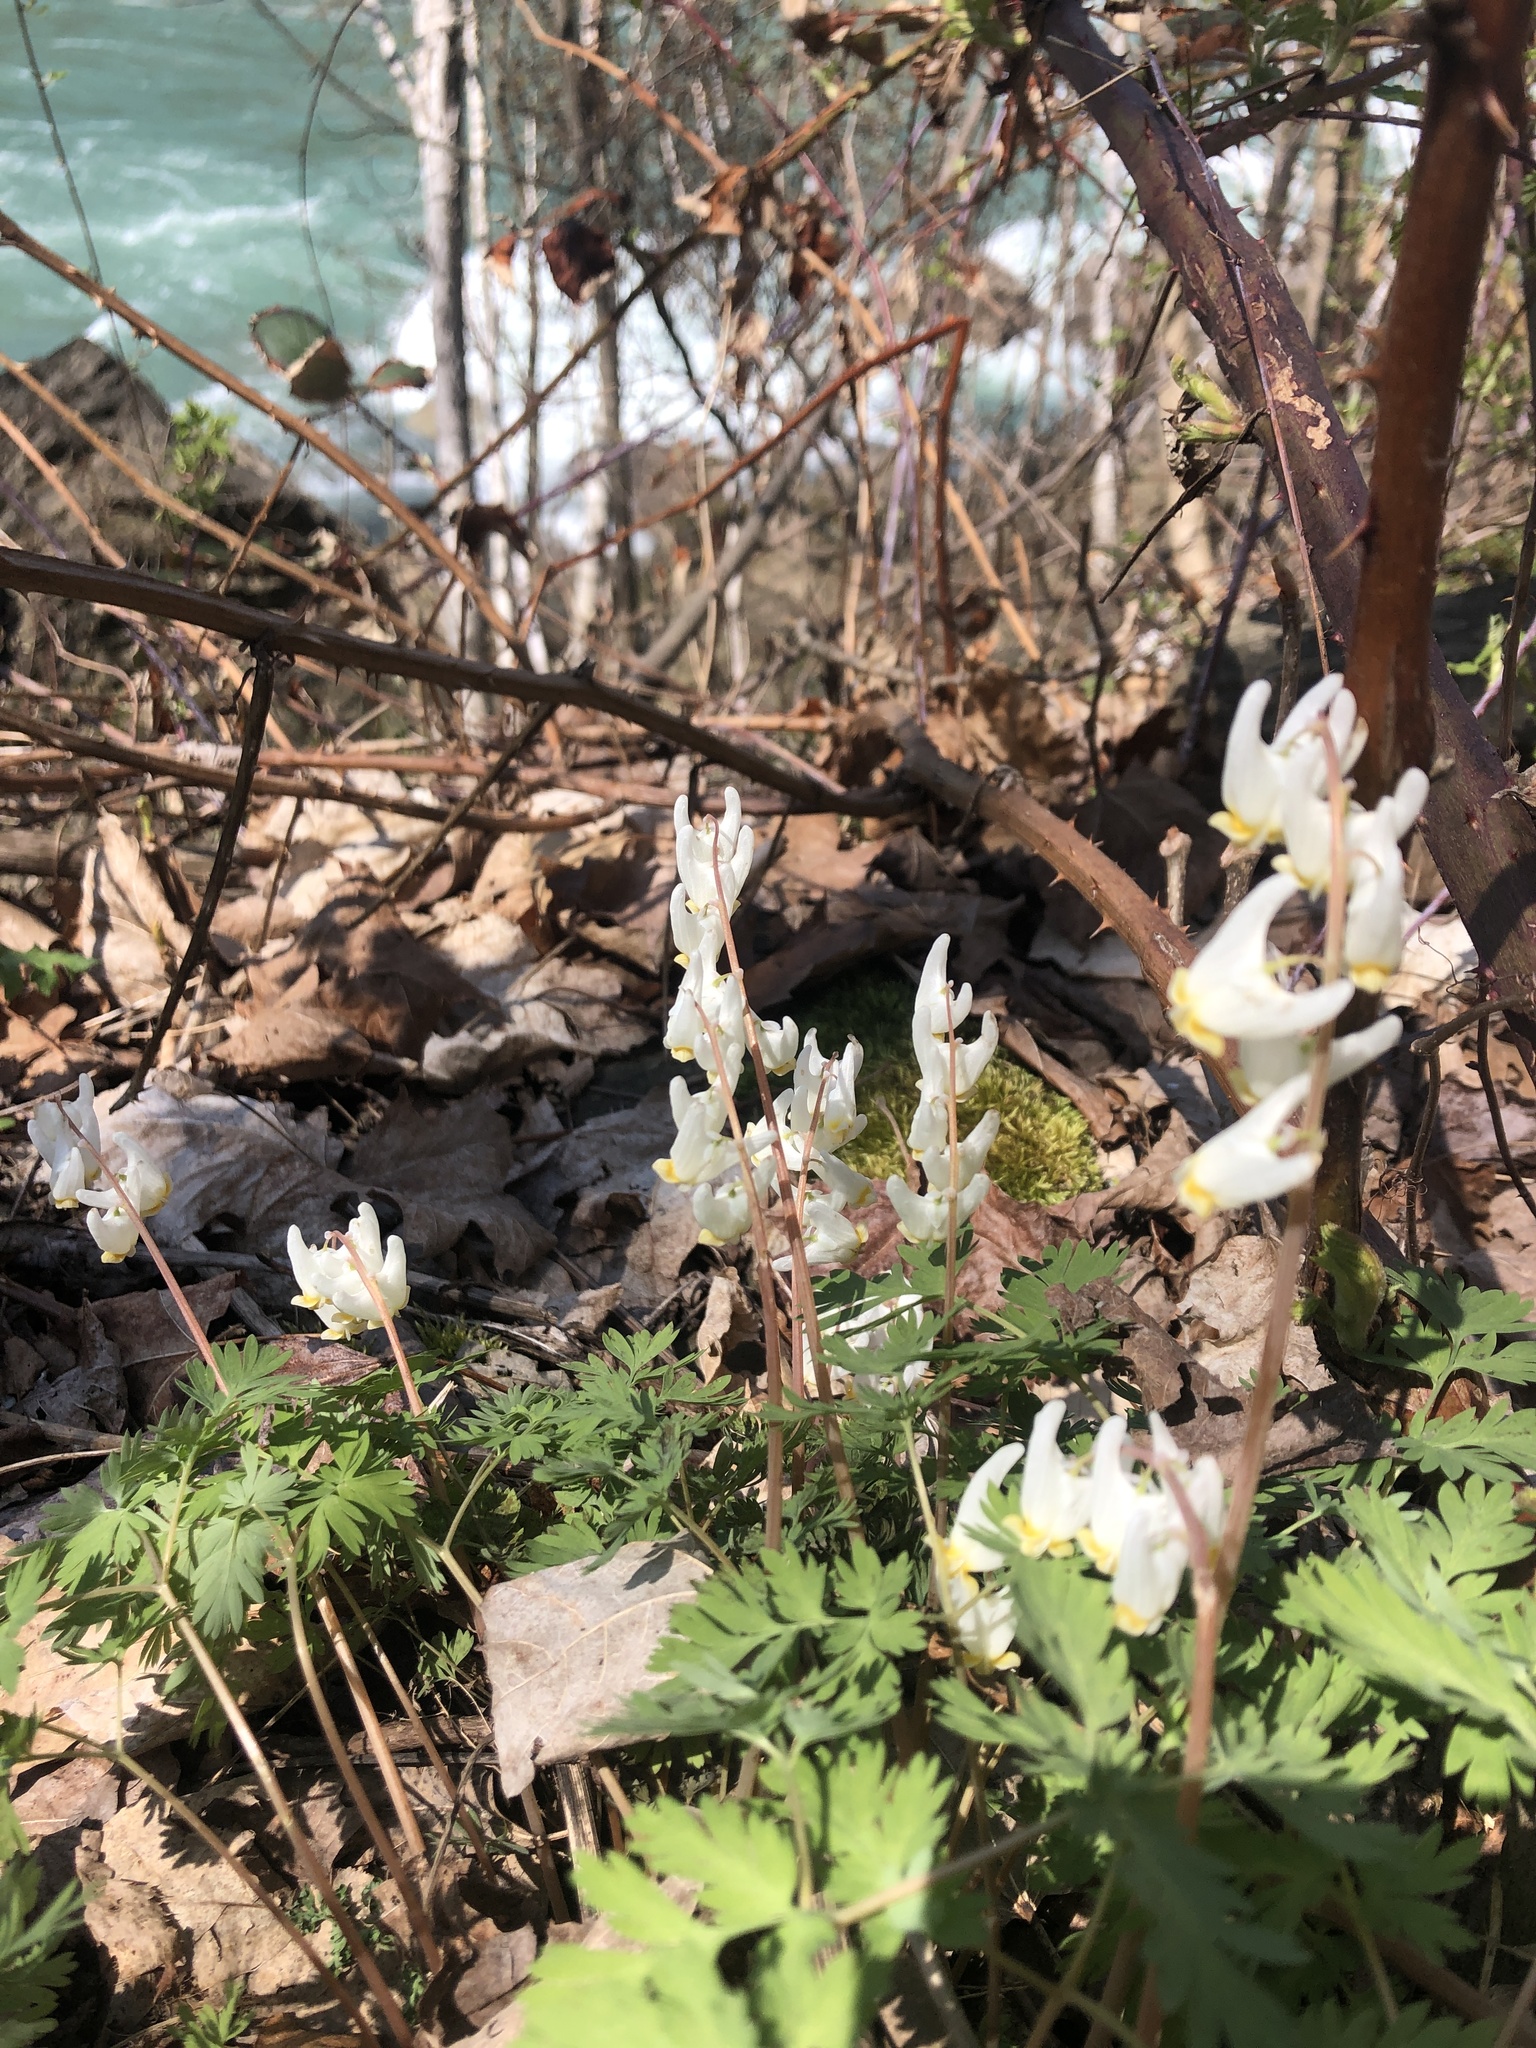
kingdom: Plantae
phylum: Tracheophyta
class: Magnoliopsida
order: Ranunculales
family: Papaveraceae
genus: Dicentra
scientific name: Dicentra cucullaria
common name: Dutchman's breeches
